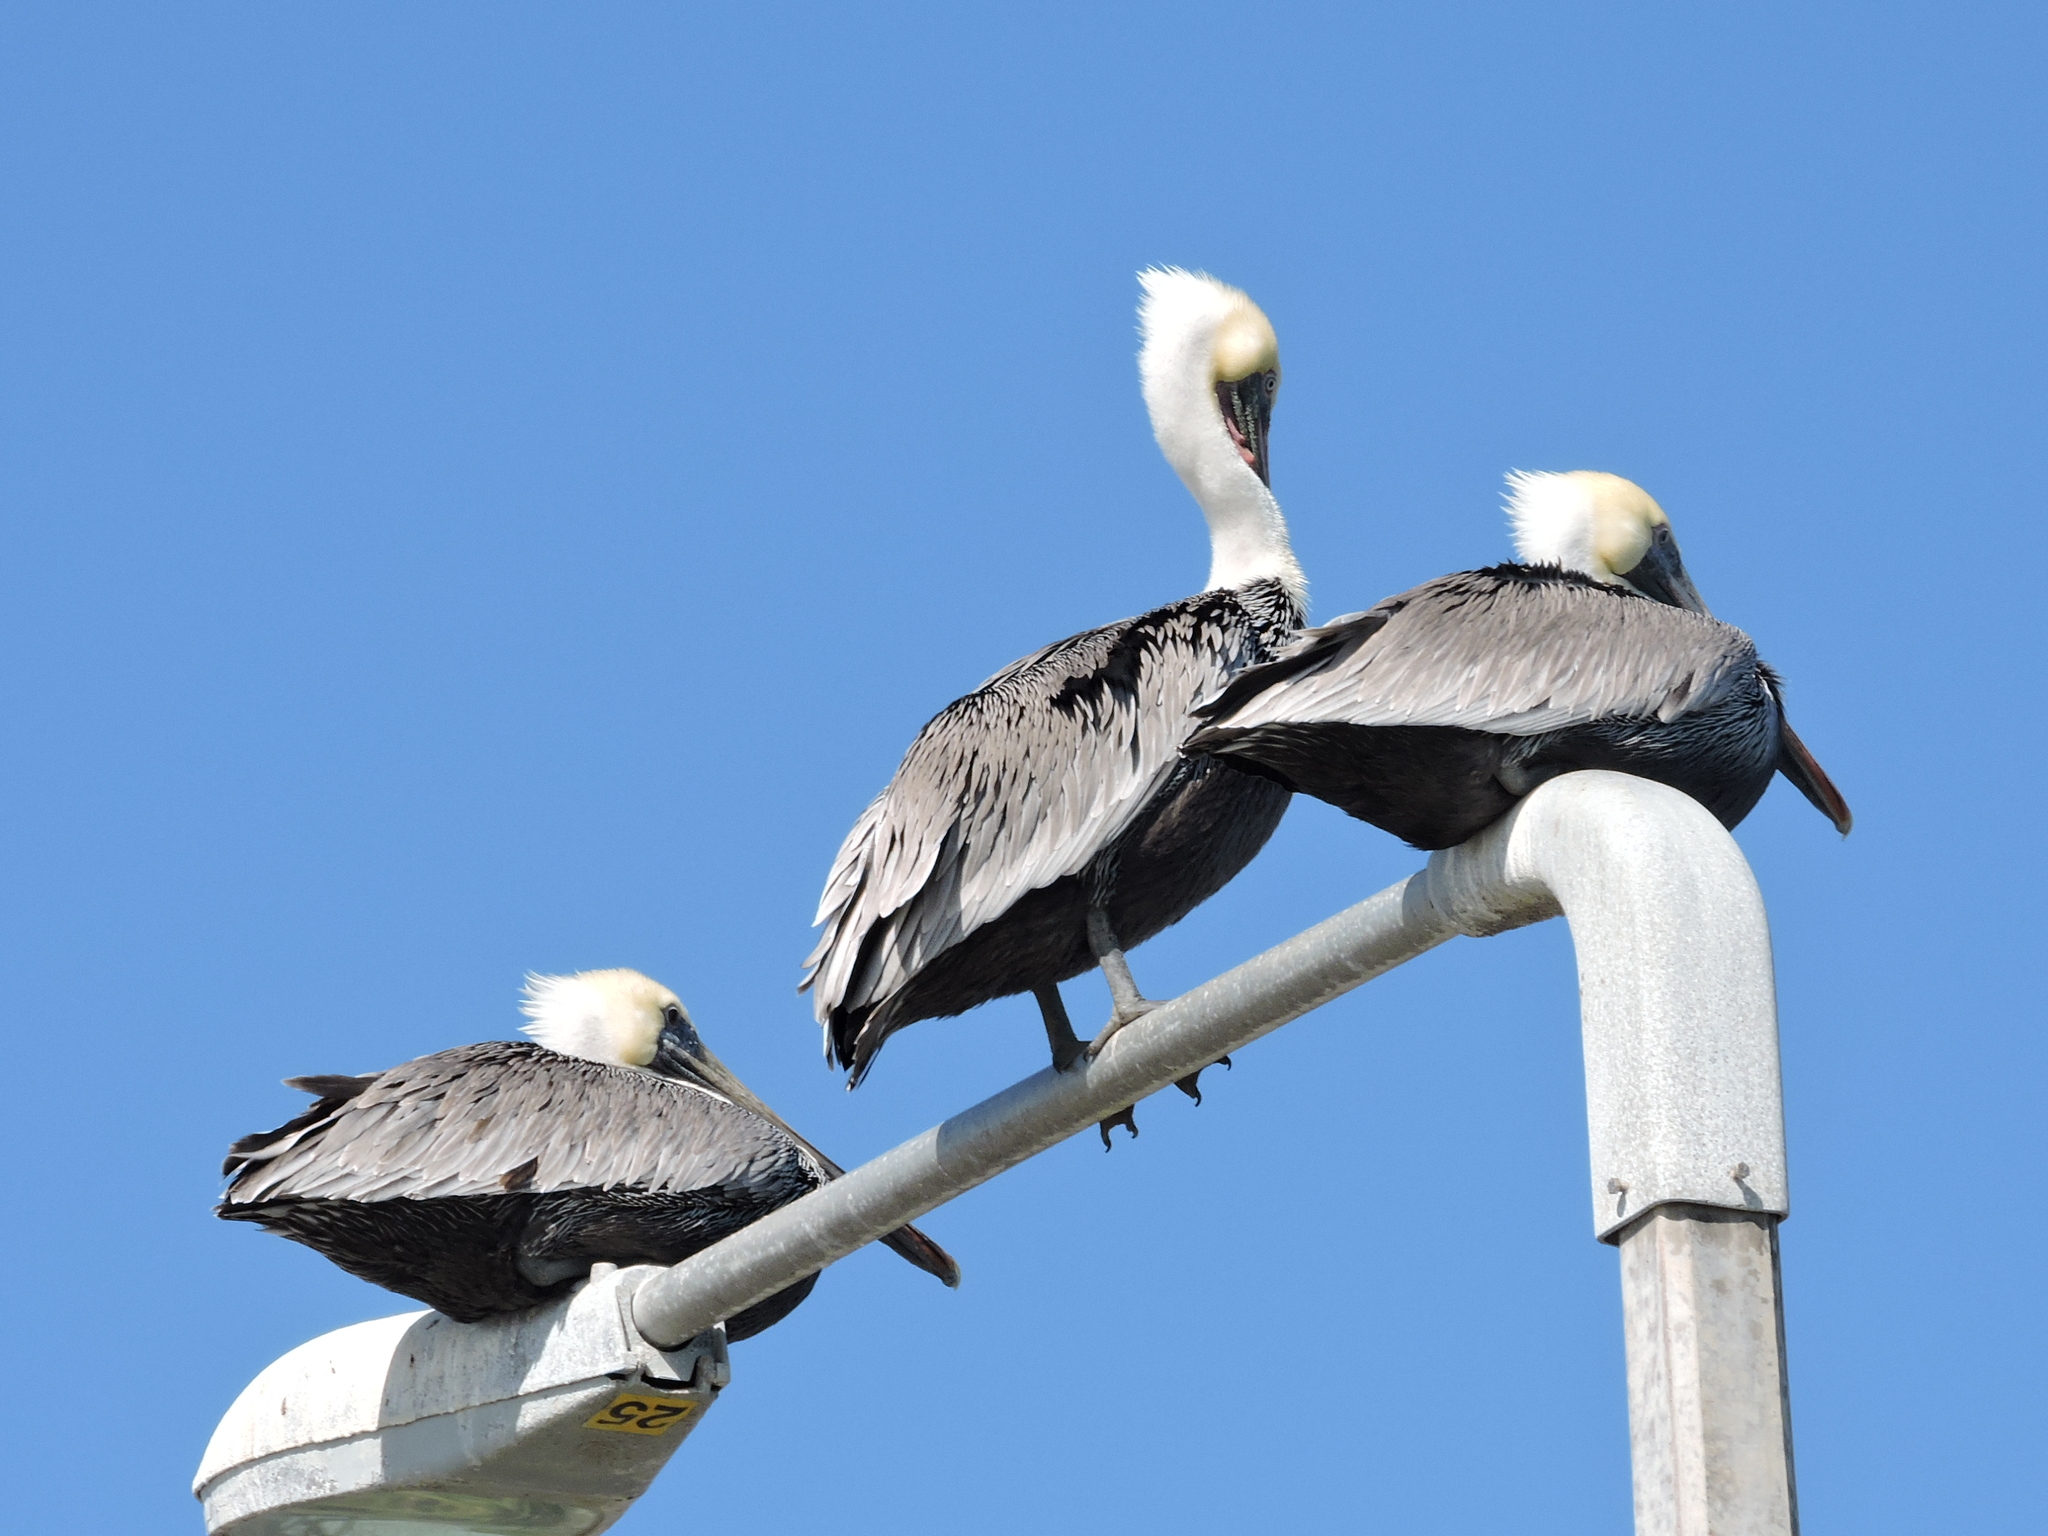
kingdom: Animalia
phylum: Chordata
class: Aves
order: Pelecaniformes
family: Pelecanidae
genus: Pelecanus
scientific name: Pelecanus occidentalis
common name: Brown pelican
